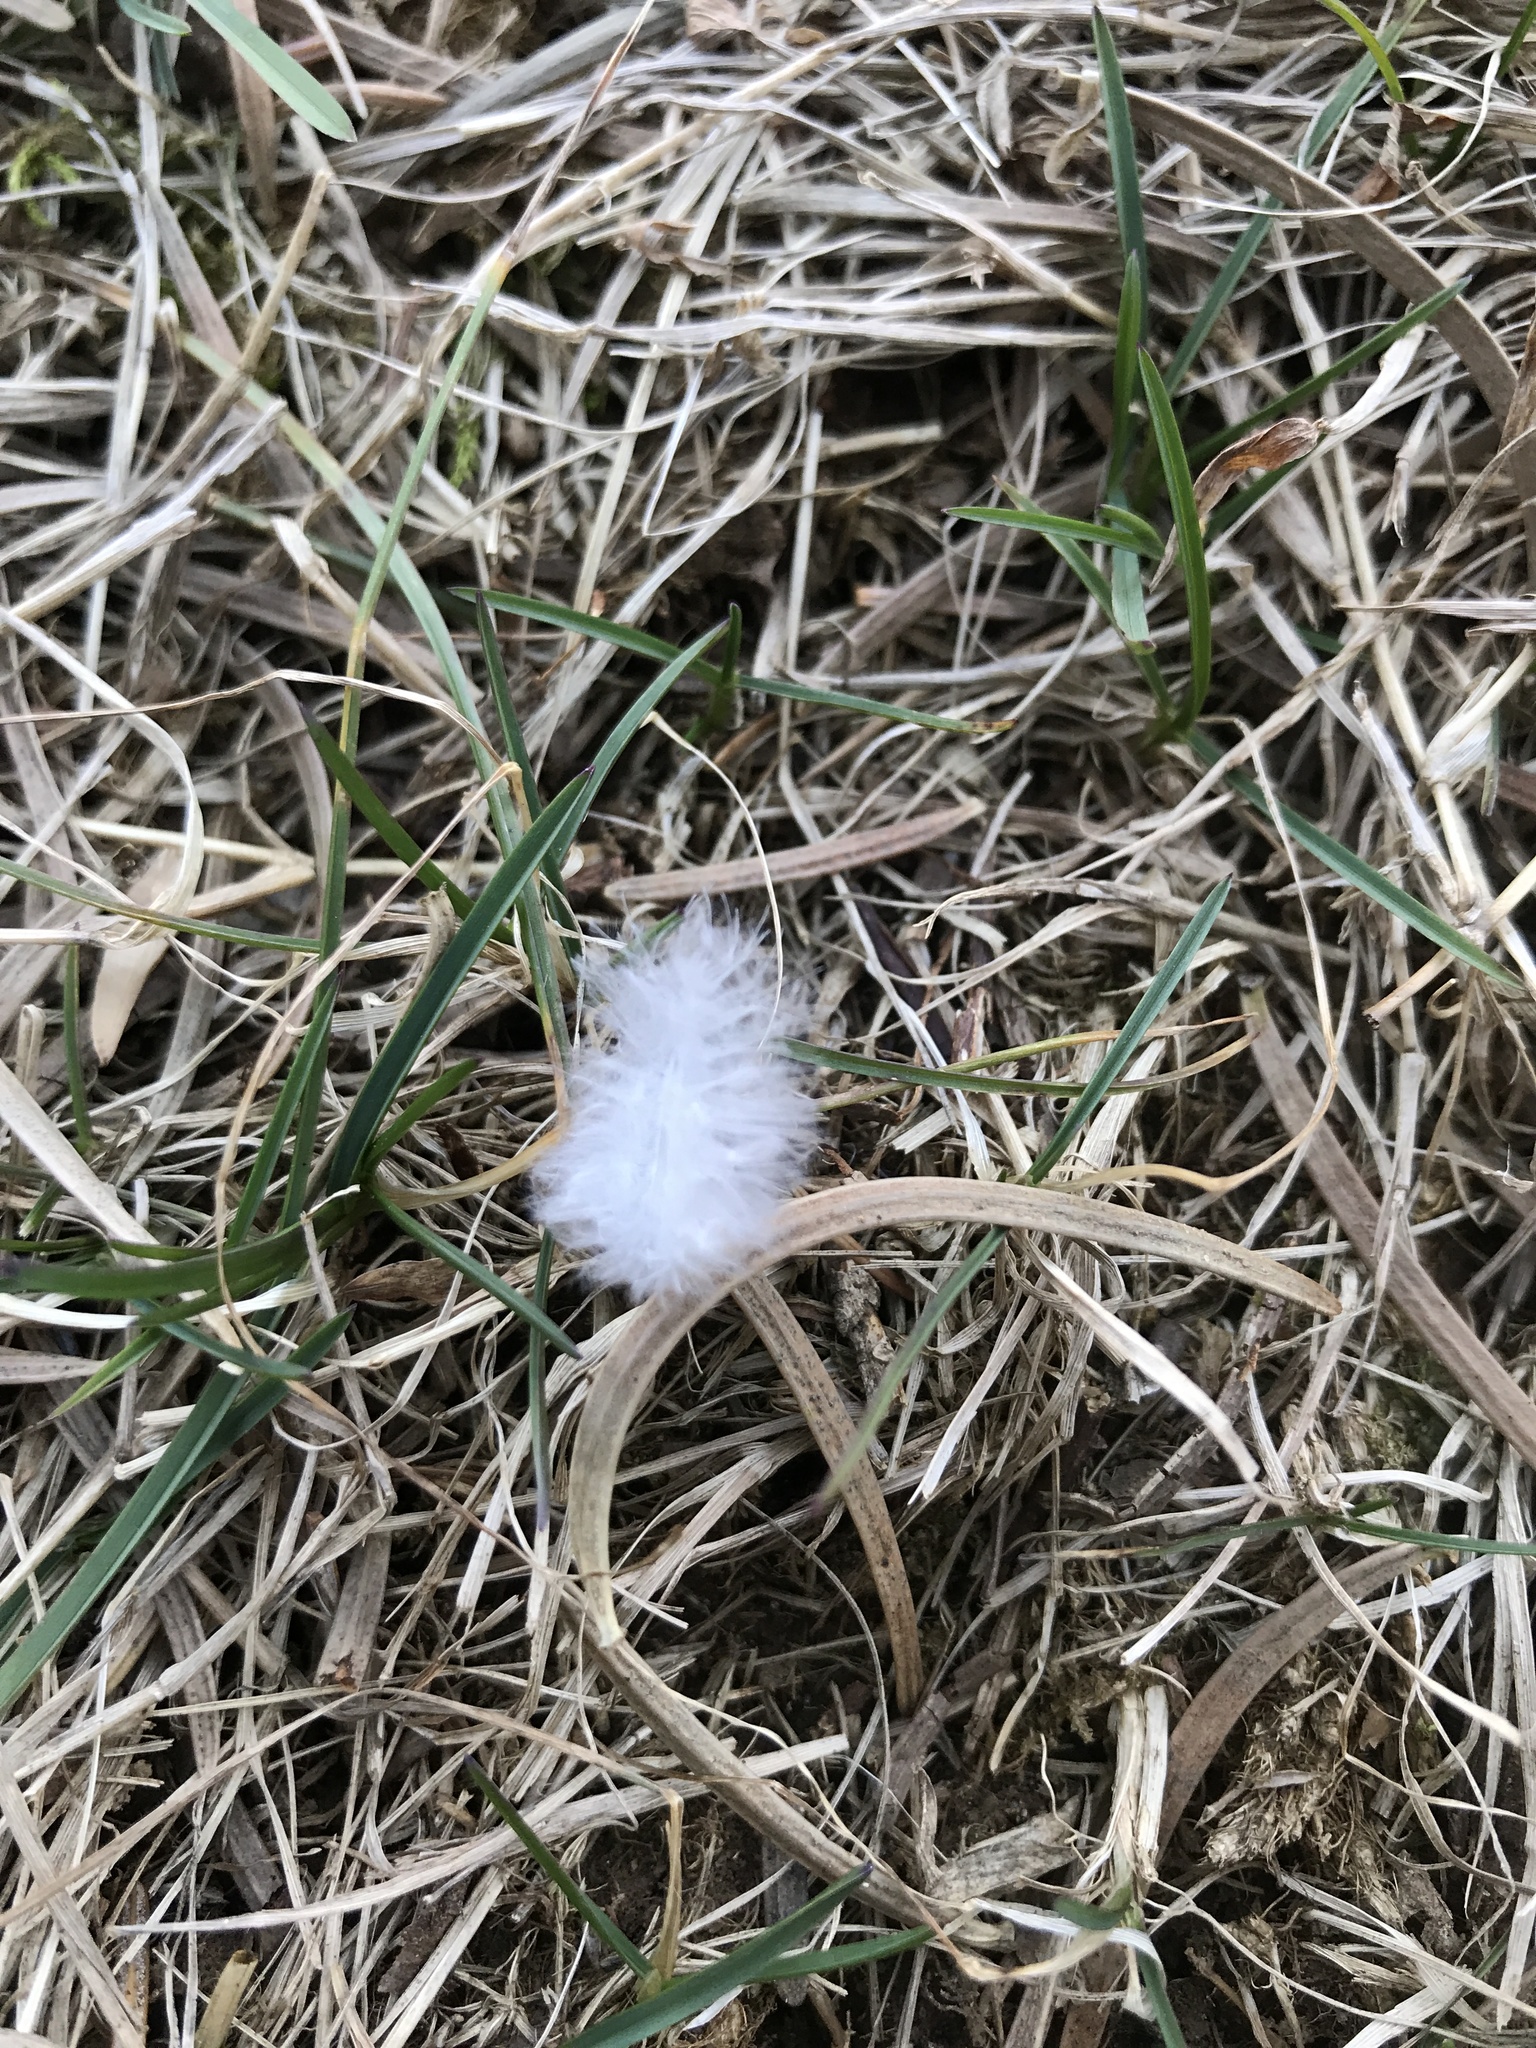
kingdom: Animalia
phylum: Chordata
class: Aves
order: Columbiformes
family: Columbidae
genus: Zenaida
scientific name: Zenaida macroura
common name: Mourning dove
